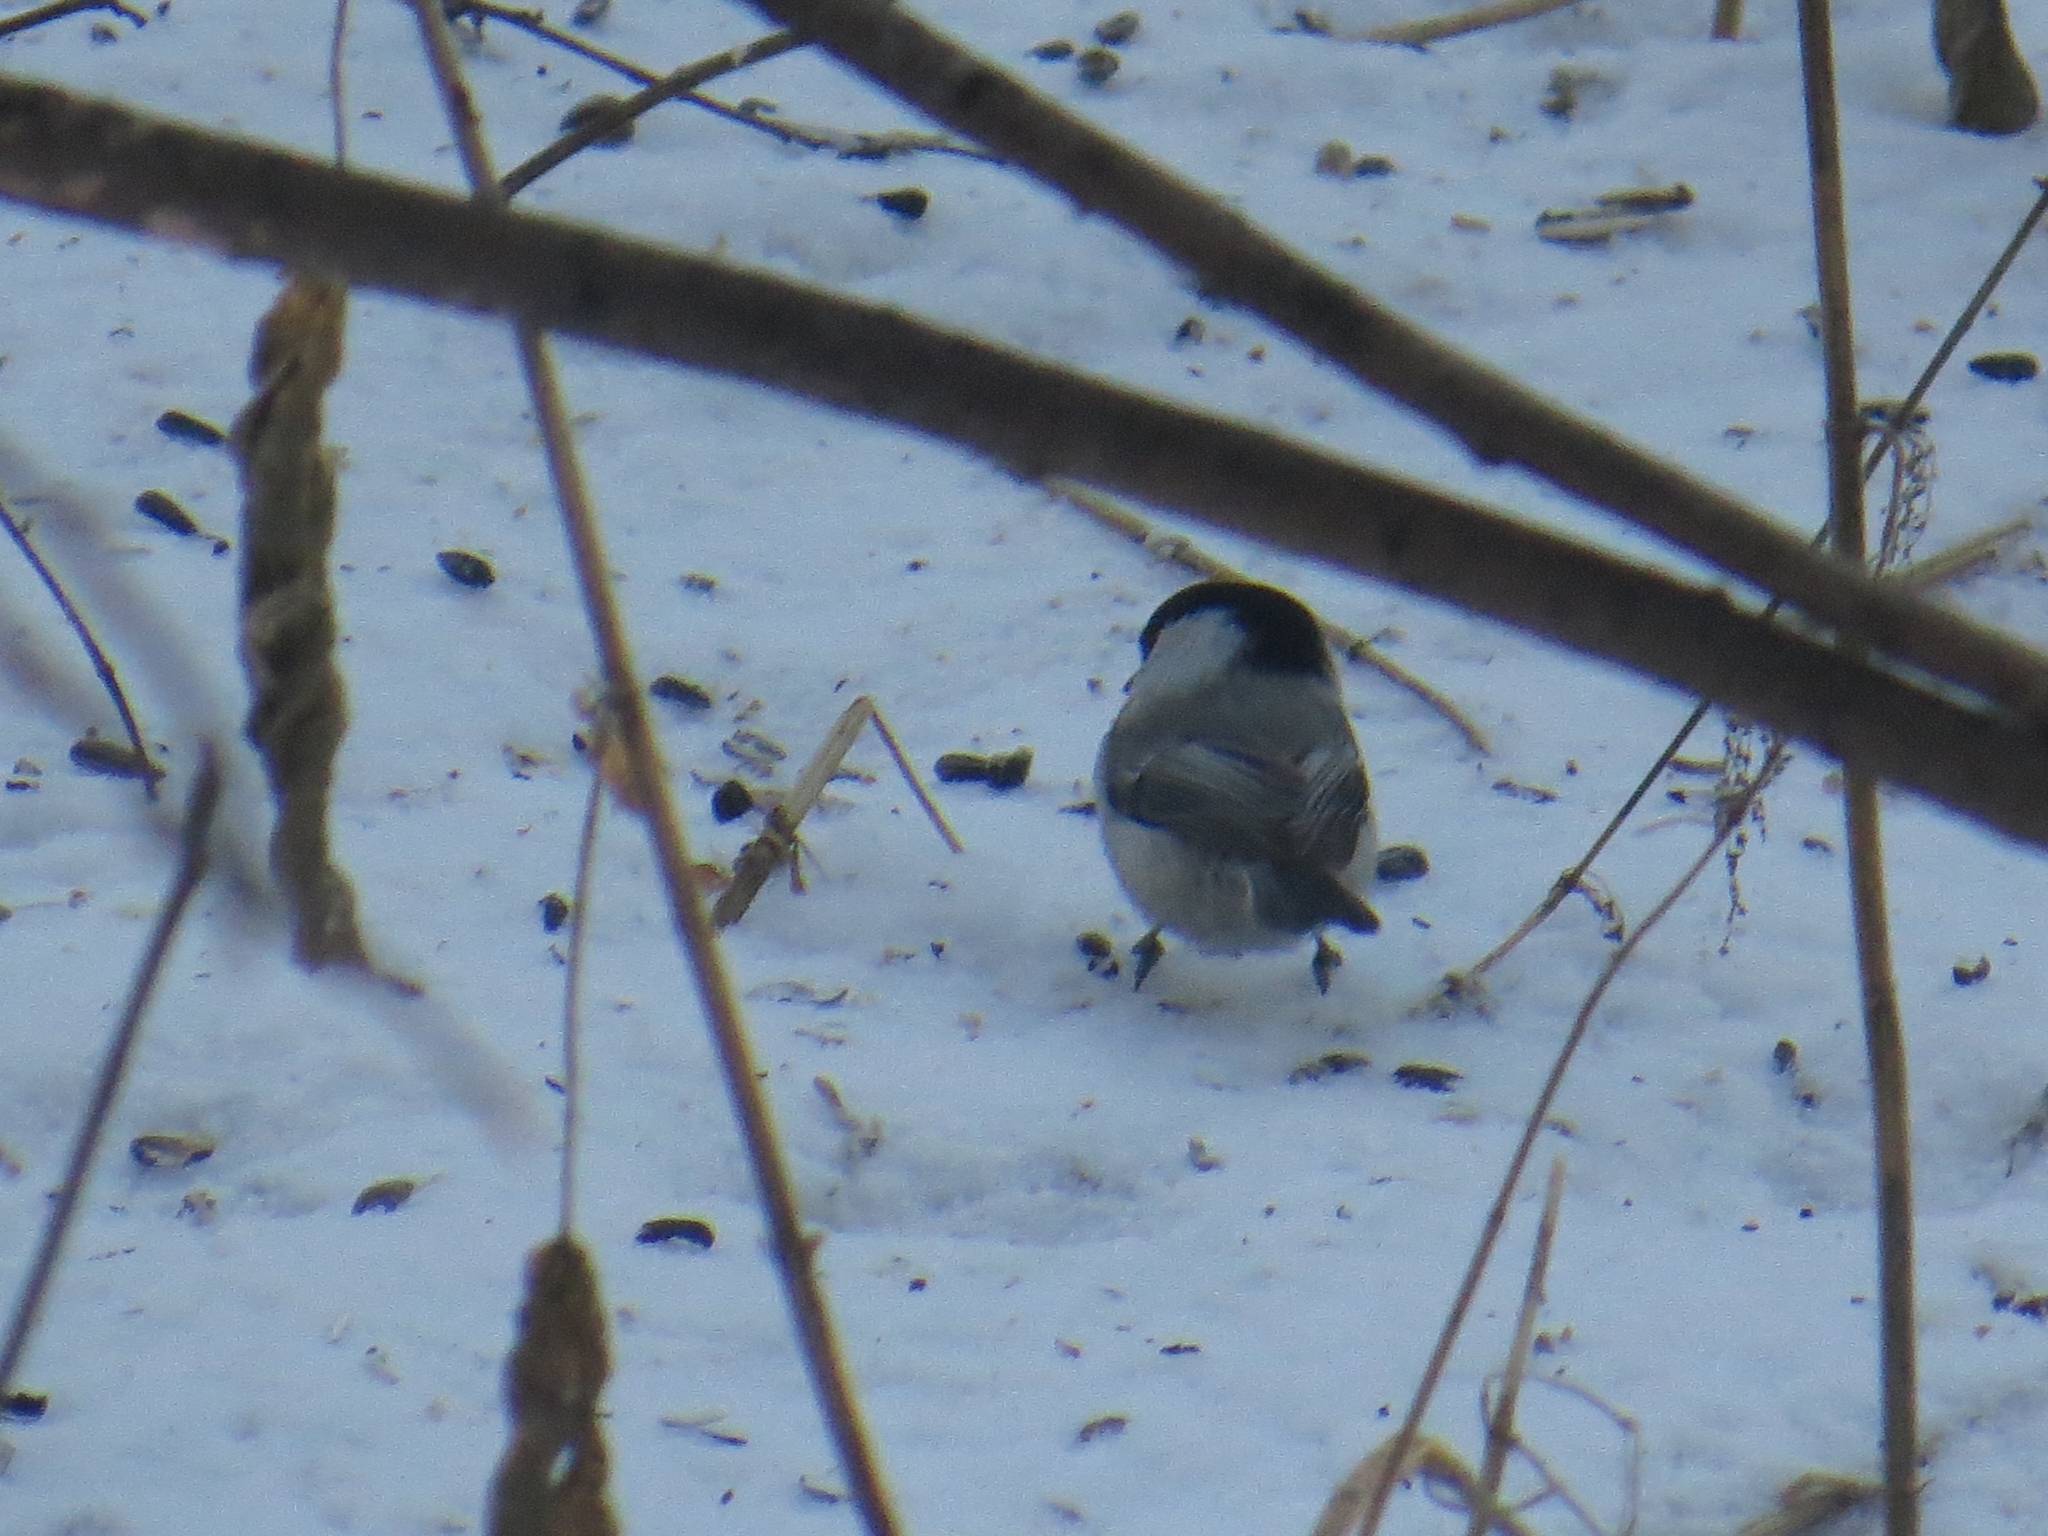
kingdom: Animalia
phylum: Chordata
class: Aves
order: Passeriformes
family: Paridae
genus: Poecile
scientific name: Poecile montanus
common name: Willow tit
